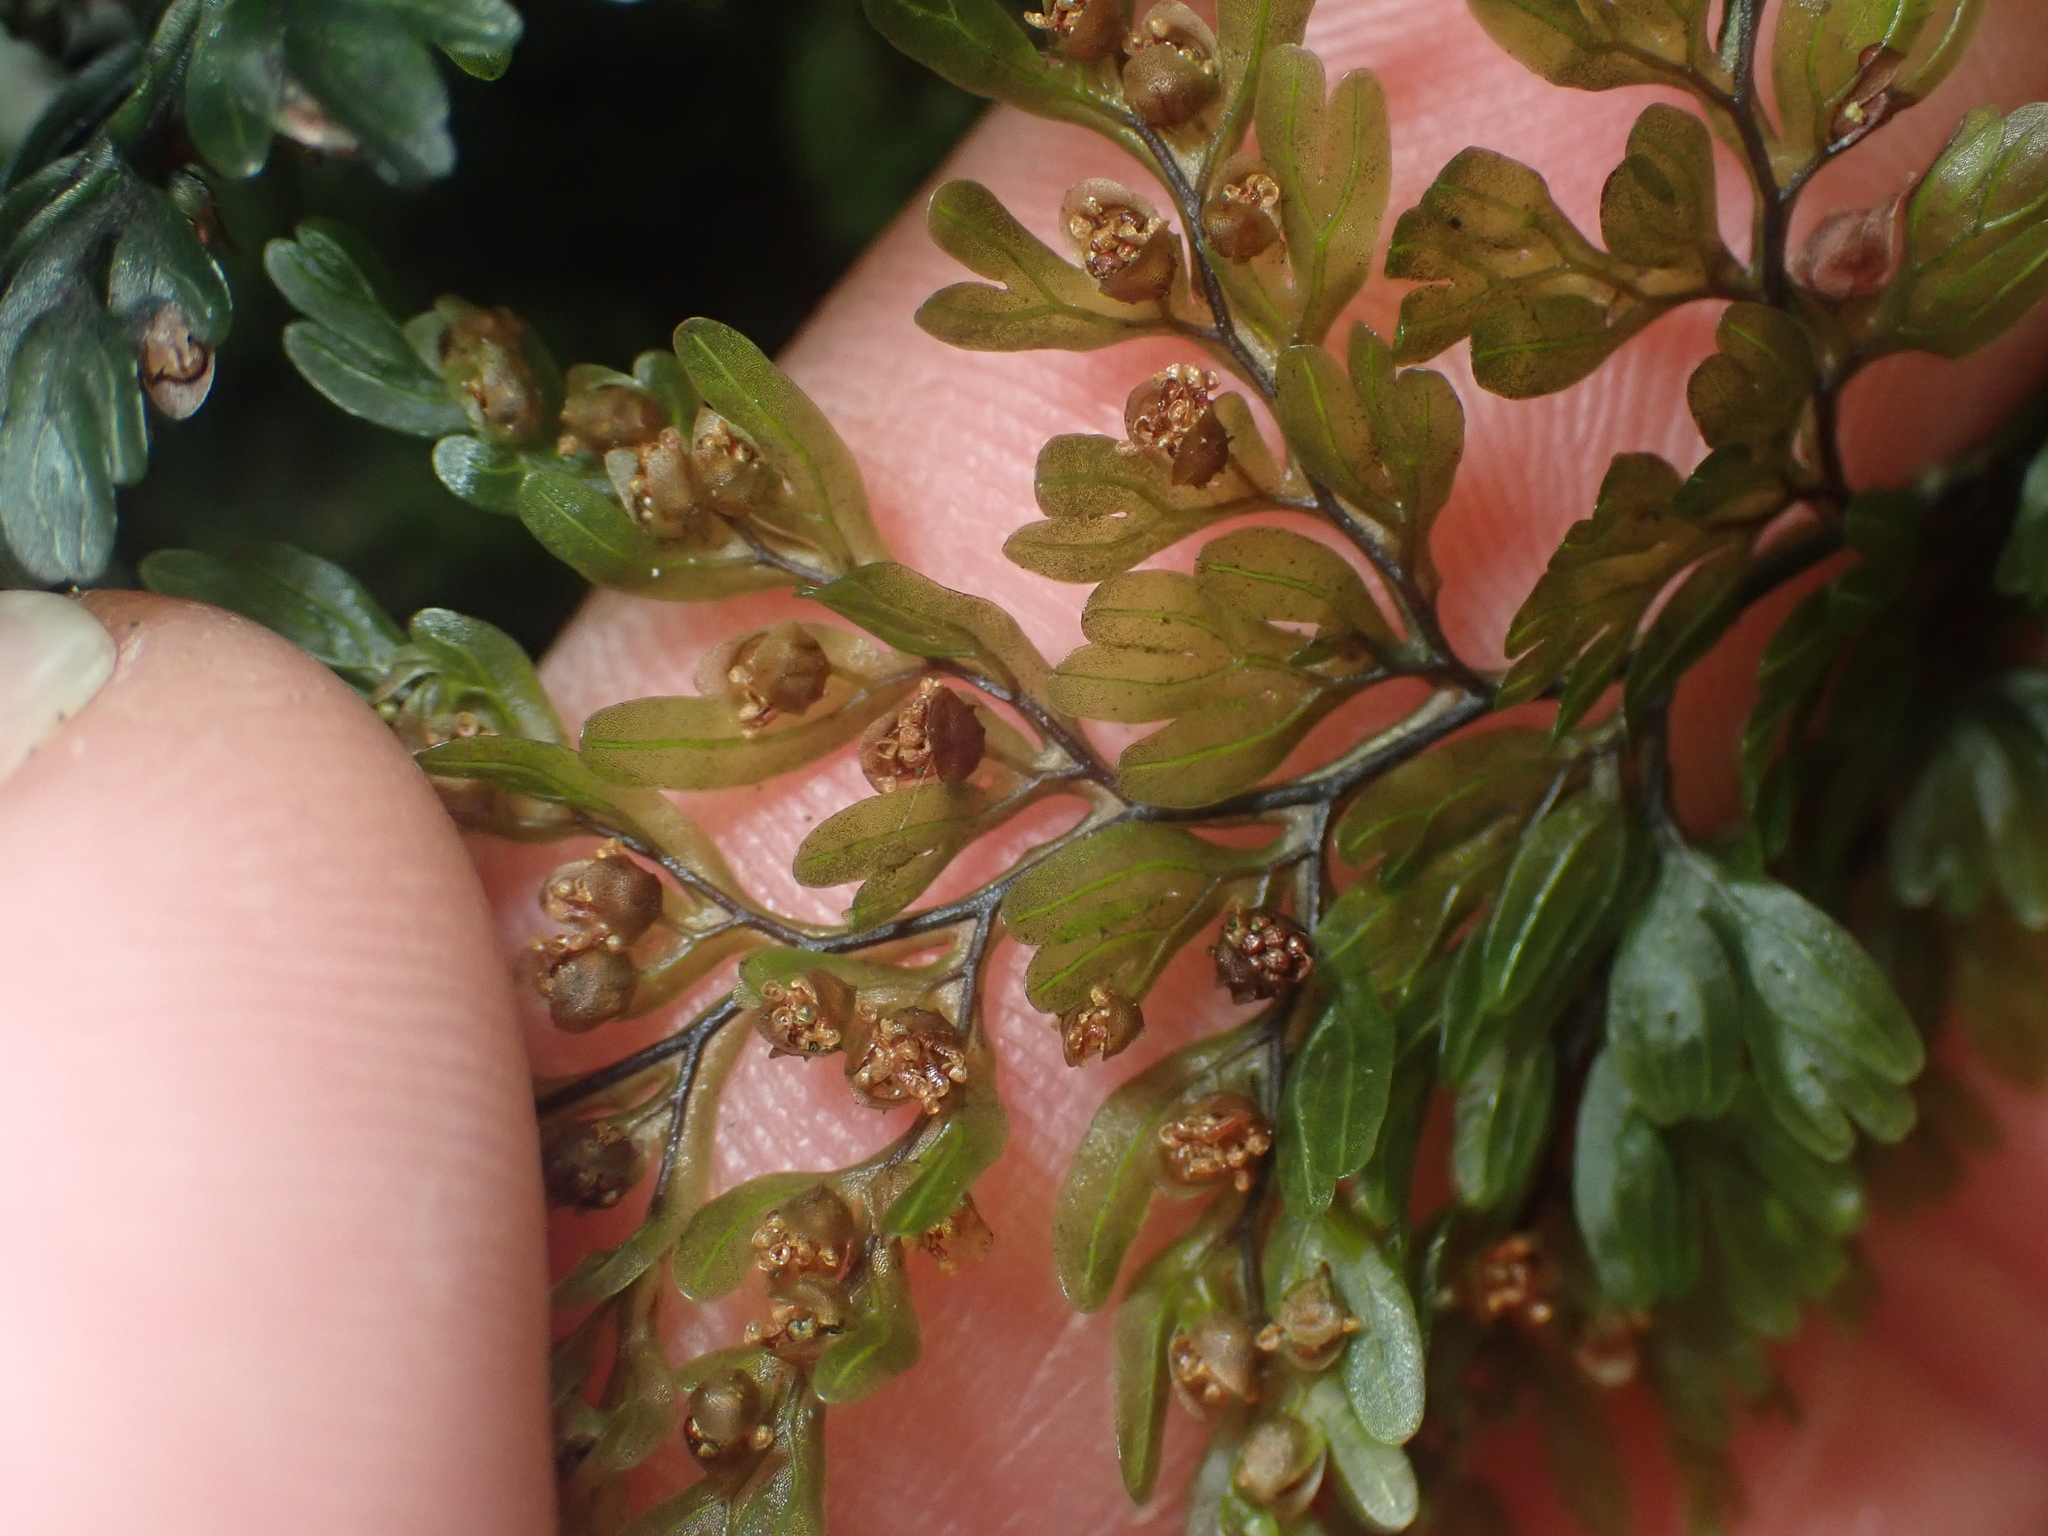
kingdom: Plantae
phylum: Tracheophyta
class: Polypodiopsida
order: Hymenophyllales
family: Hymenophyllaceae
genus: Hymenophyllum
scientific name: Hymenophyllum sanguinolentum
